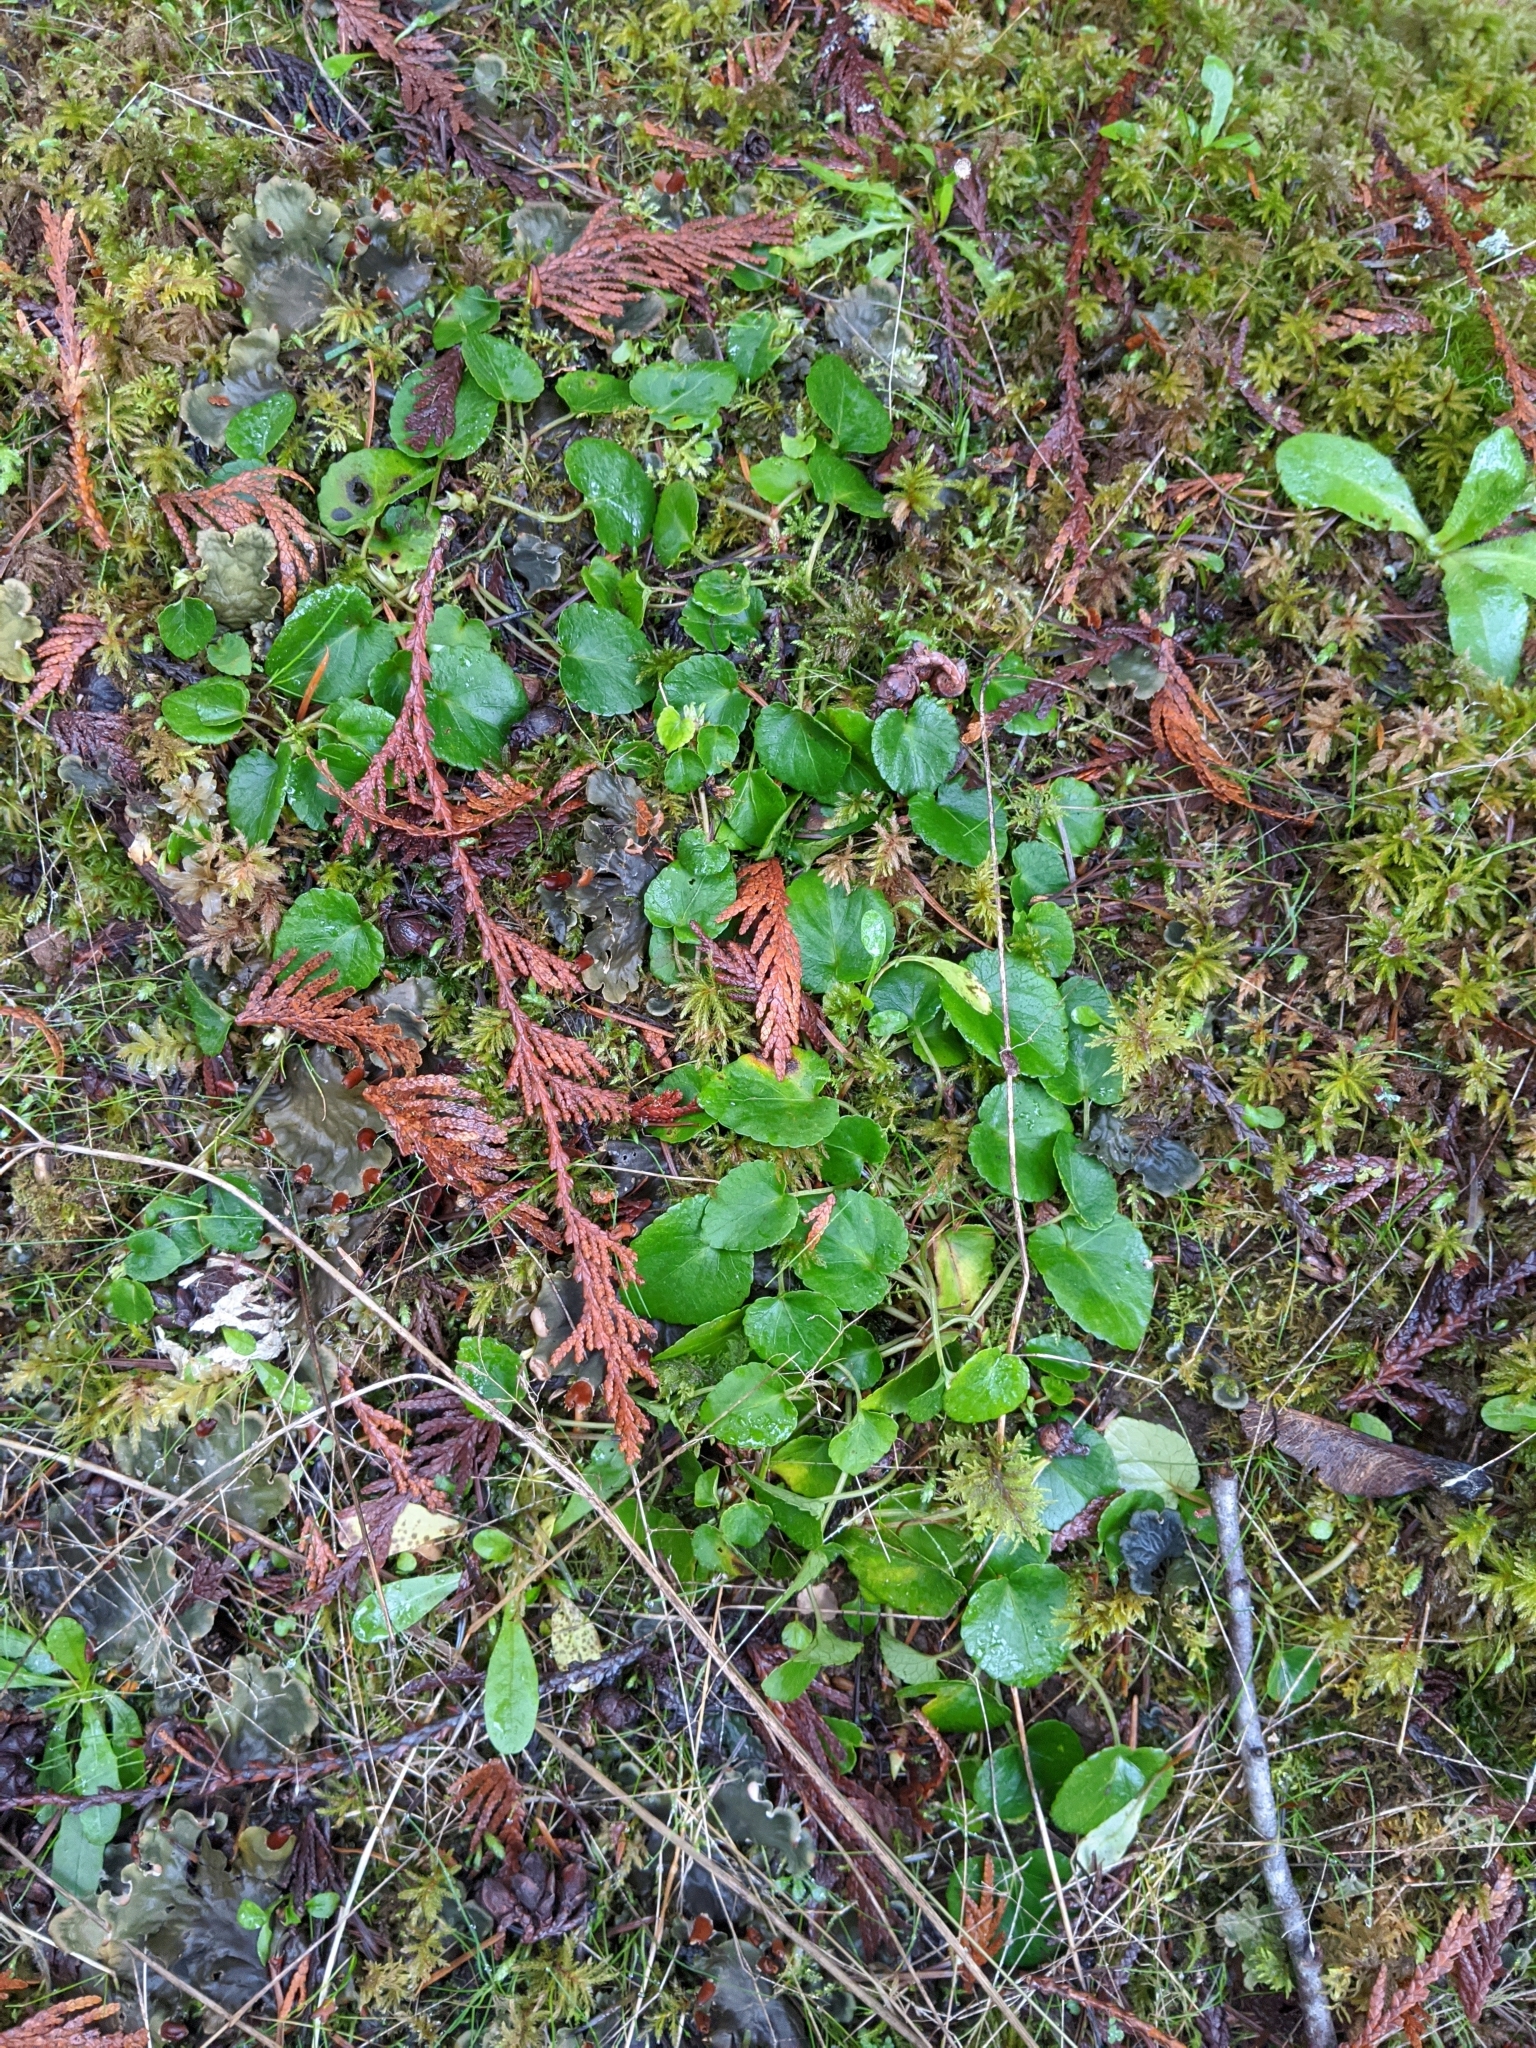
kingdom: Plantae
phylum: Tracheophyta
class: Magnoliopsida
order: Malpighiales
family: Violaceae
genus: Viola
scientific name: Viola sempervirens
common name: Evergreen violet
